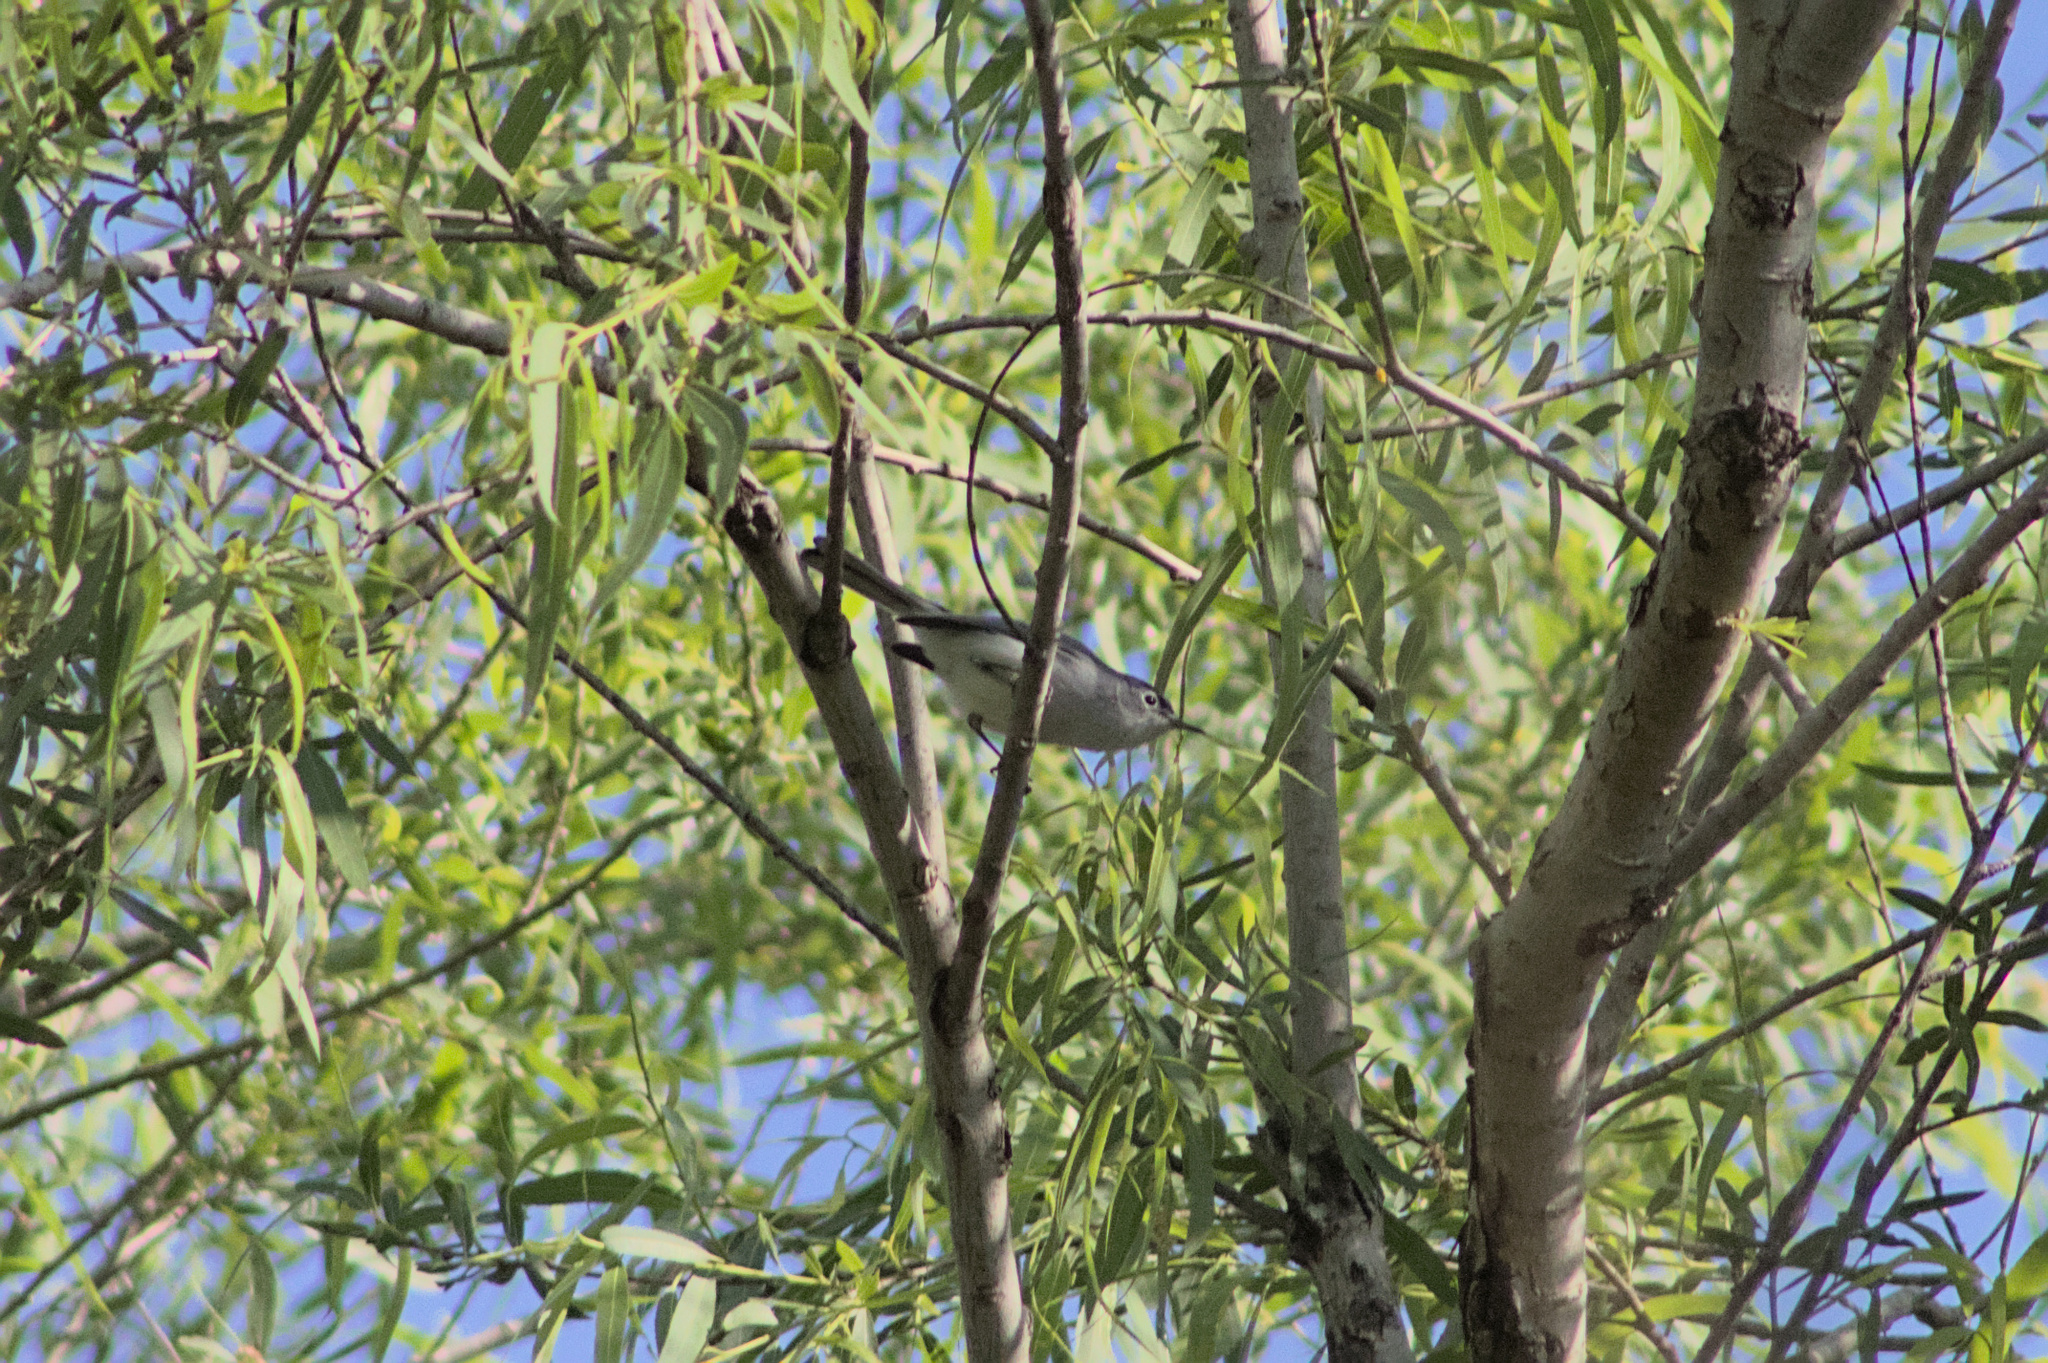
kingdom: Animalia
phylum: Chordata
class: Aves
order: Passeriformes
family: Polioptilidae
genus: Polioptila
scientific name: Polioptila caerulea
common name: Blue-gray gnatcatcher
